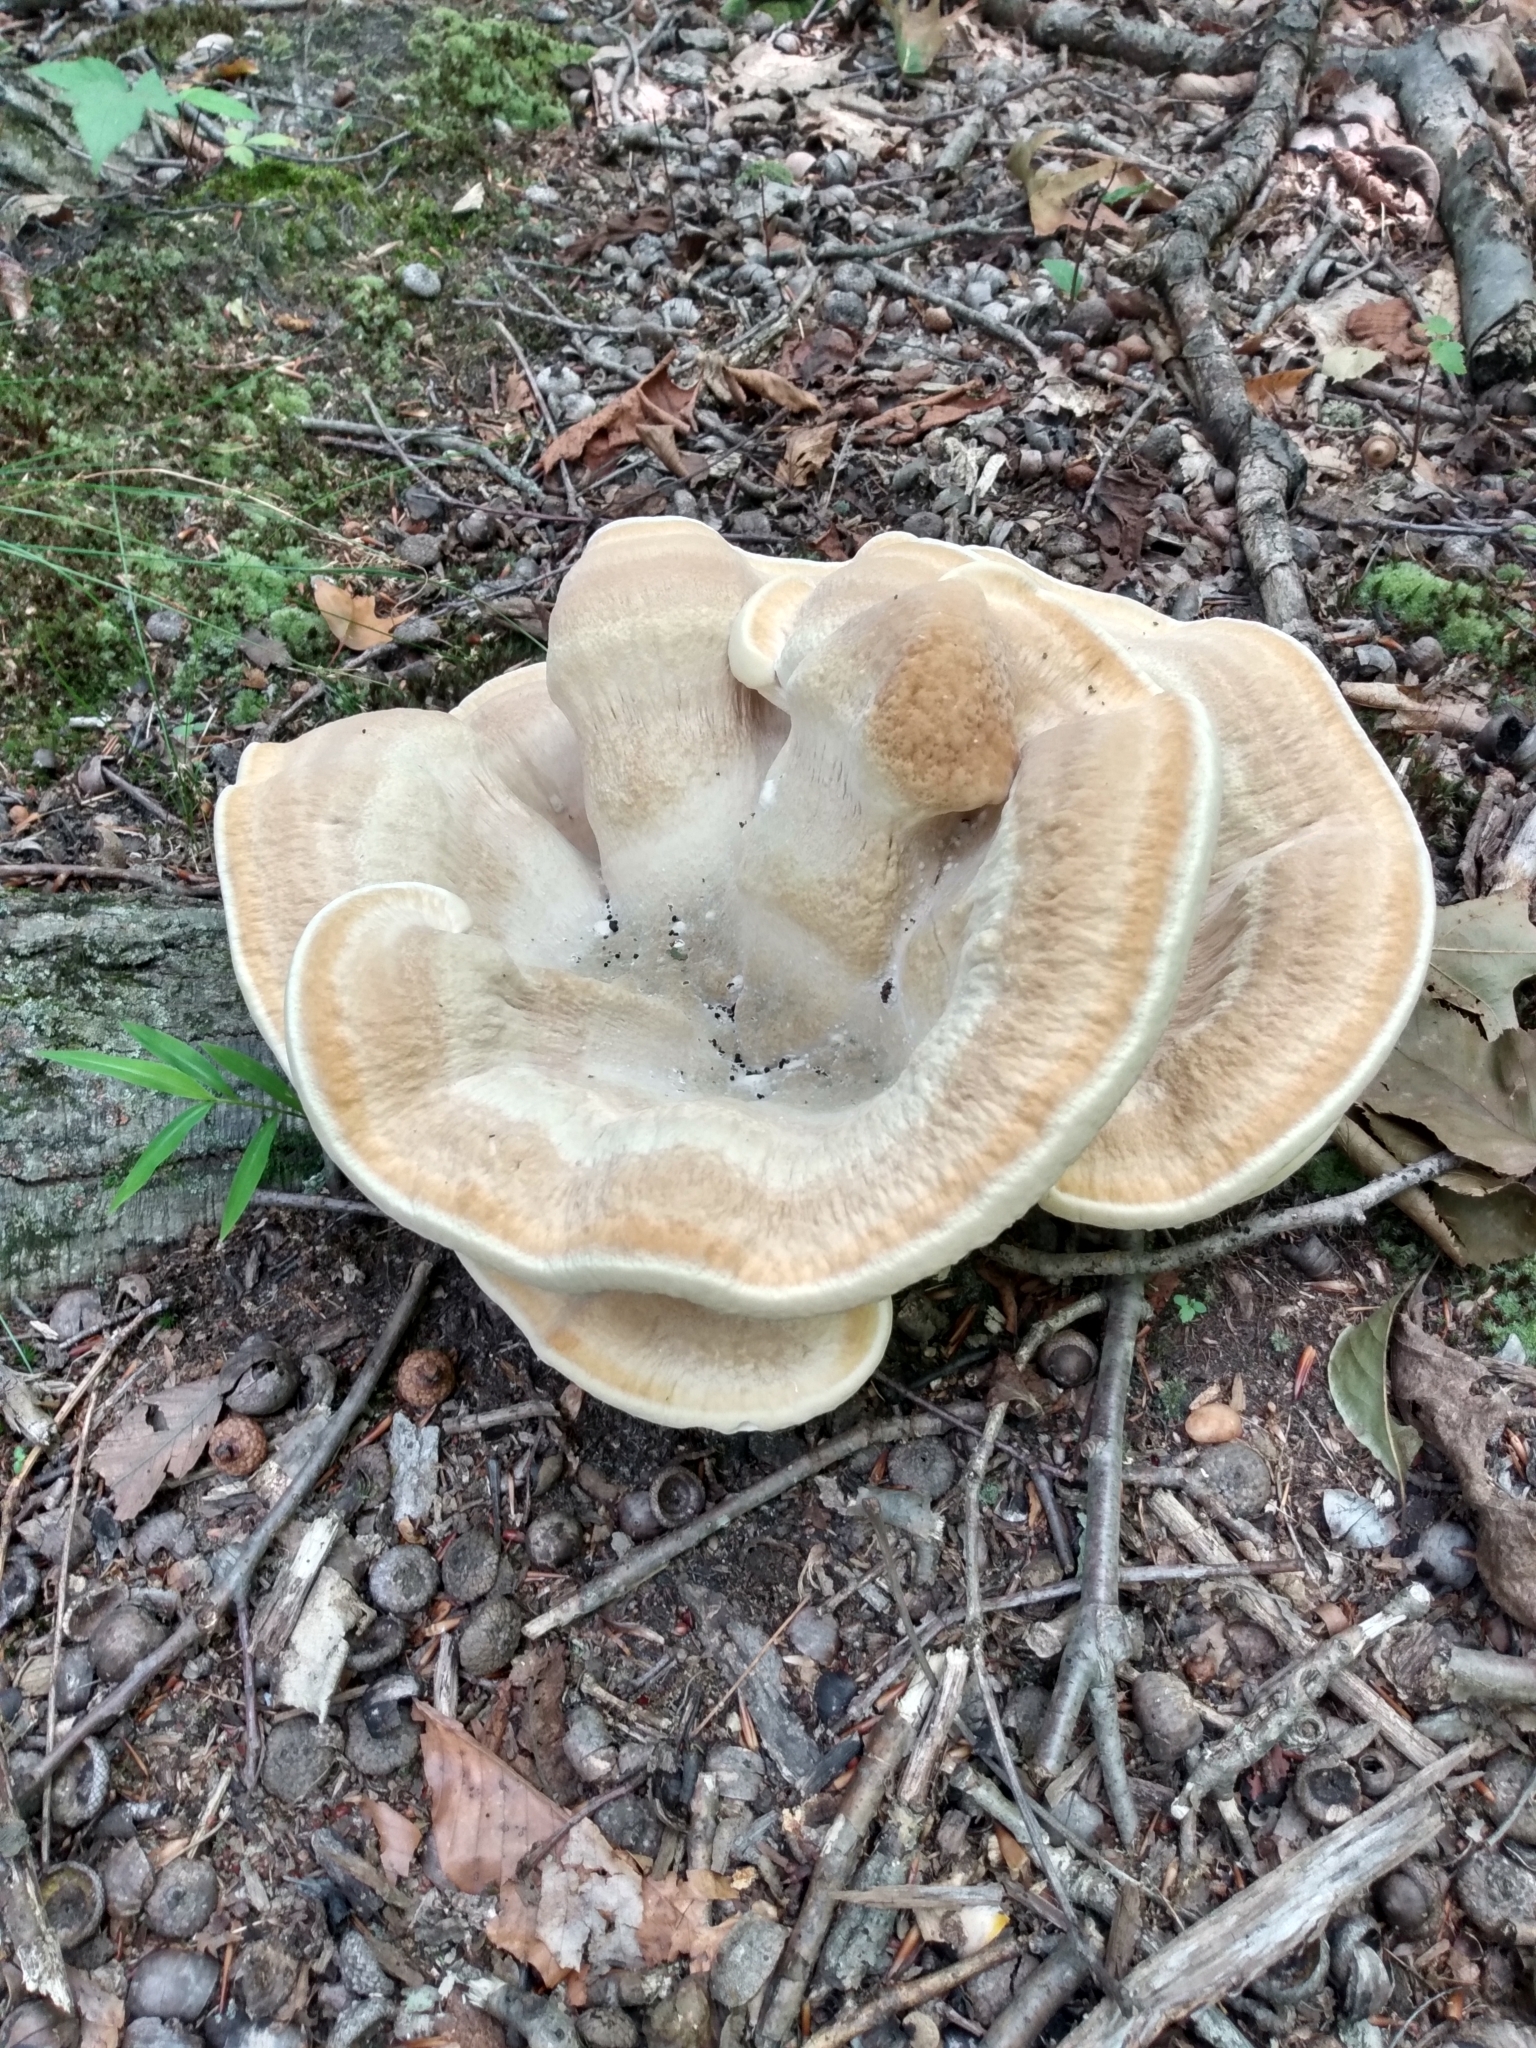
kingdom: Fungi
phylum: Basidiomycota
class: Agaricomycetes
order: Russulales
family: Bondarzewiaceae
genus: Bondarzewia
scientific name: Bondarzewia berkeleyi
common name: Berkeley's polypore
